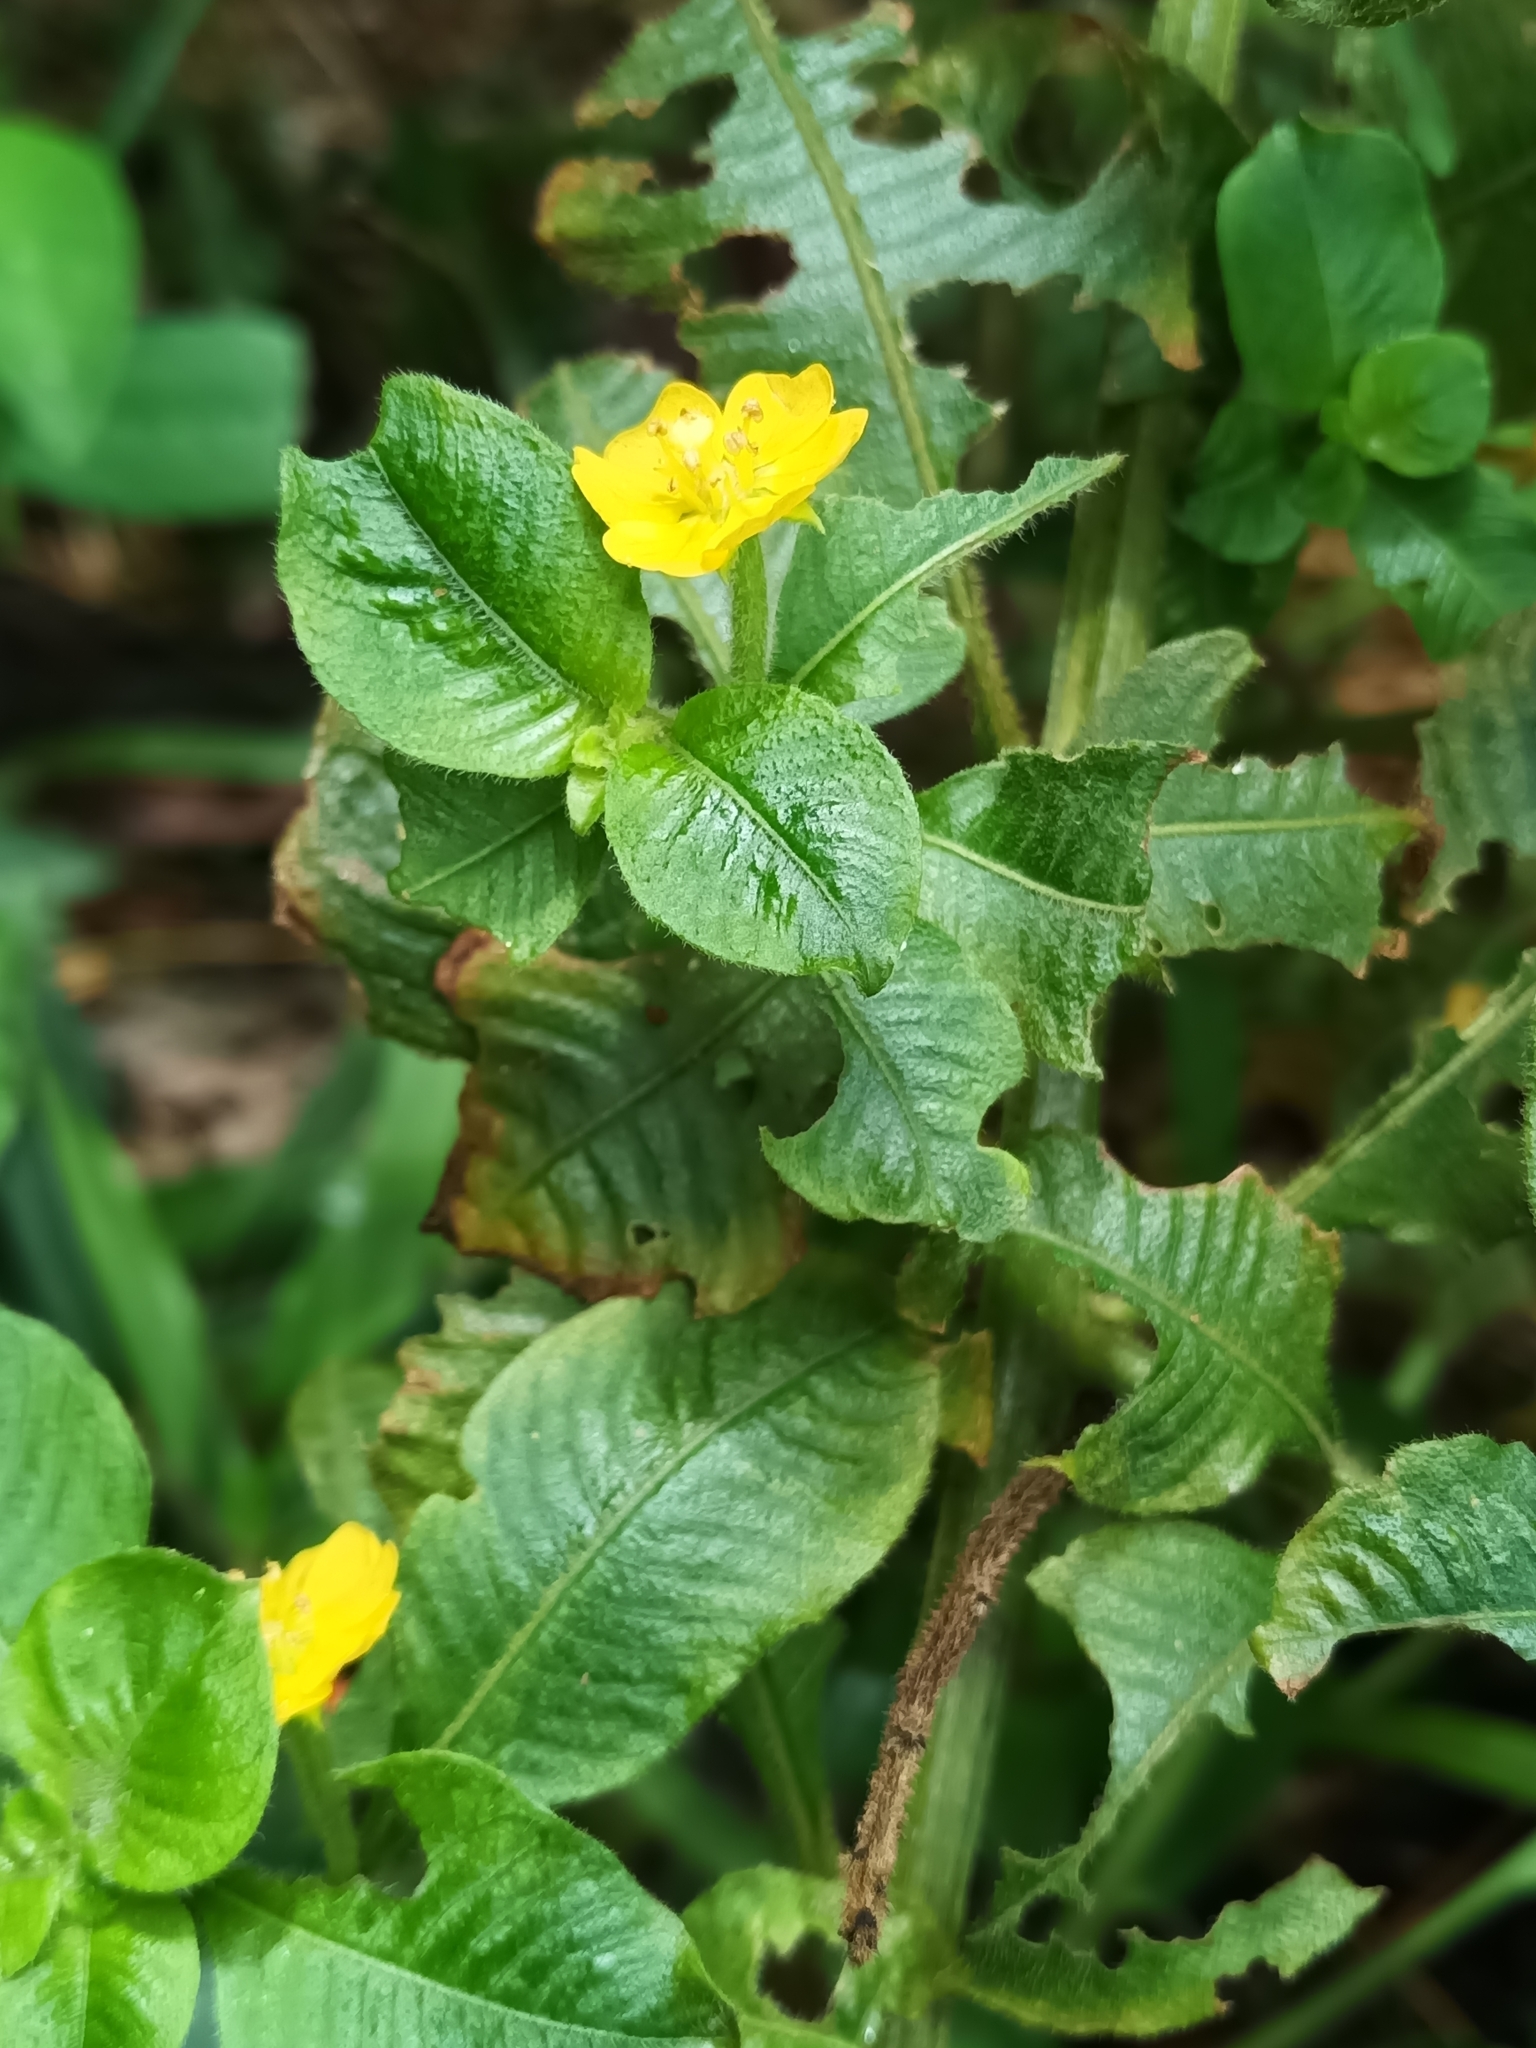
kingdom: Plantae
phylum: Tracheophyta
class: Magnoliopsida
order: Myrtales
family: Onagraceae
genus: Ludwigia
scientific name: Ludwigia affinis
